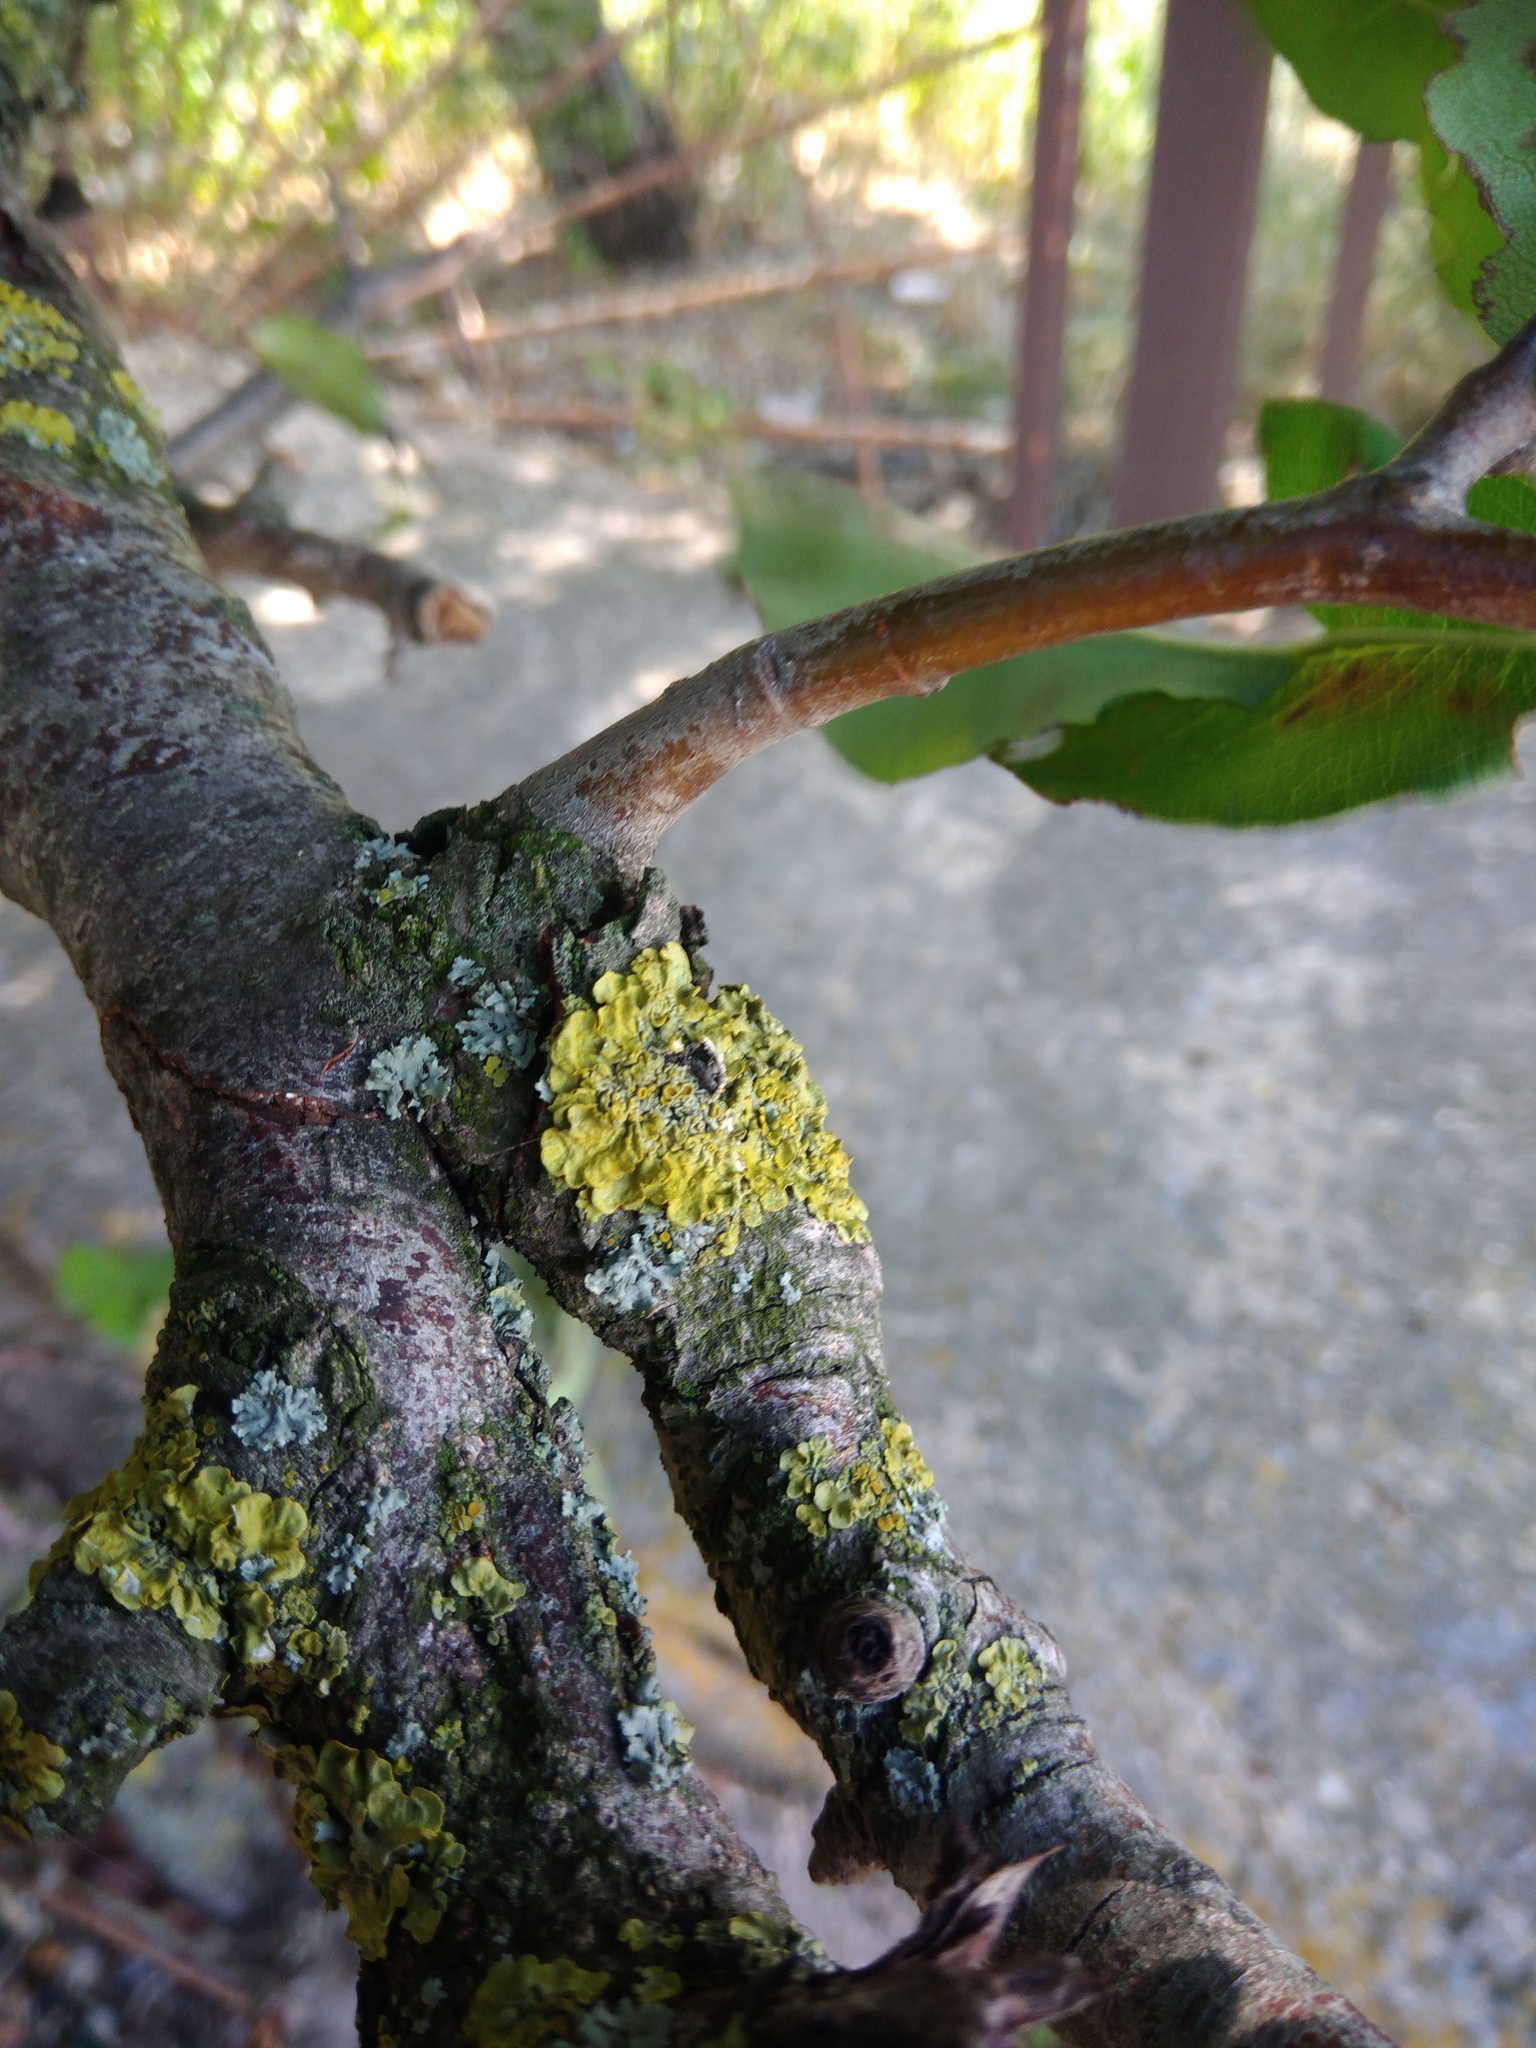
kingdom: Fungi
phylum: Ascomycota
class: Lecanoromycetes
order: Teloschistales
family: Teloschistaceae
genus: Xanthoria
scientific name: Xanthoria parietina
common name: Common orange lichen
